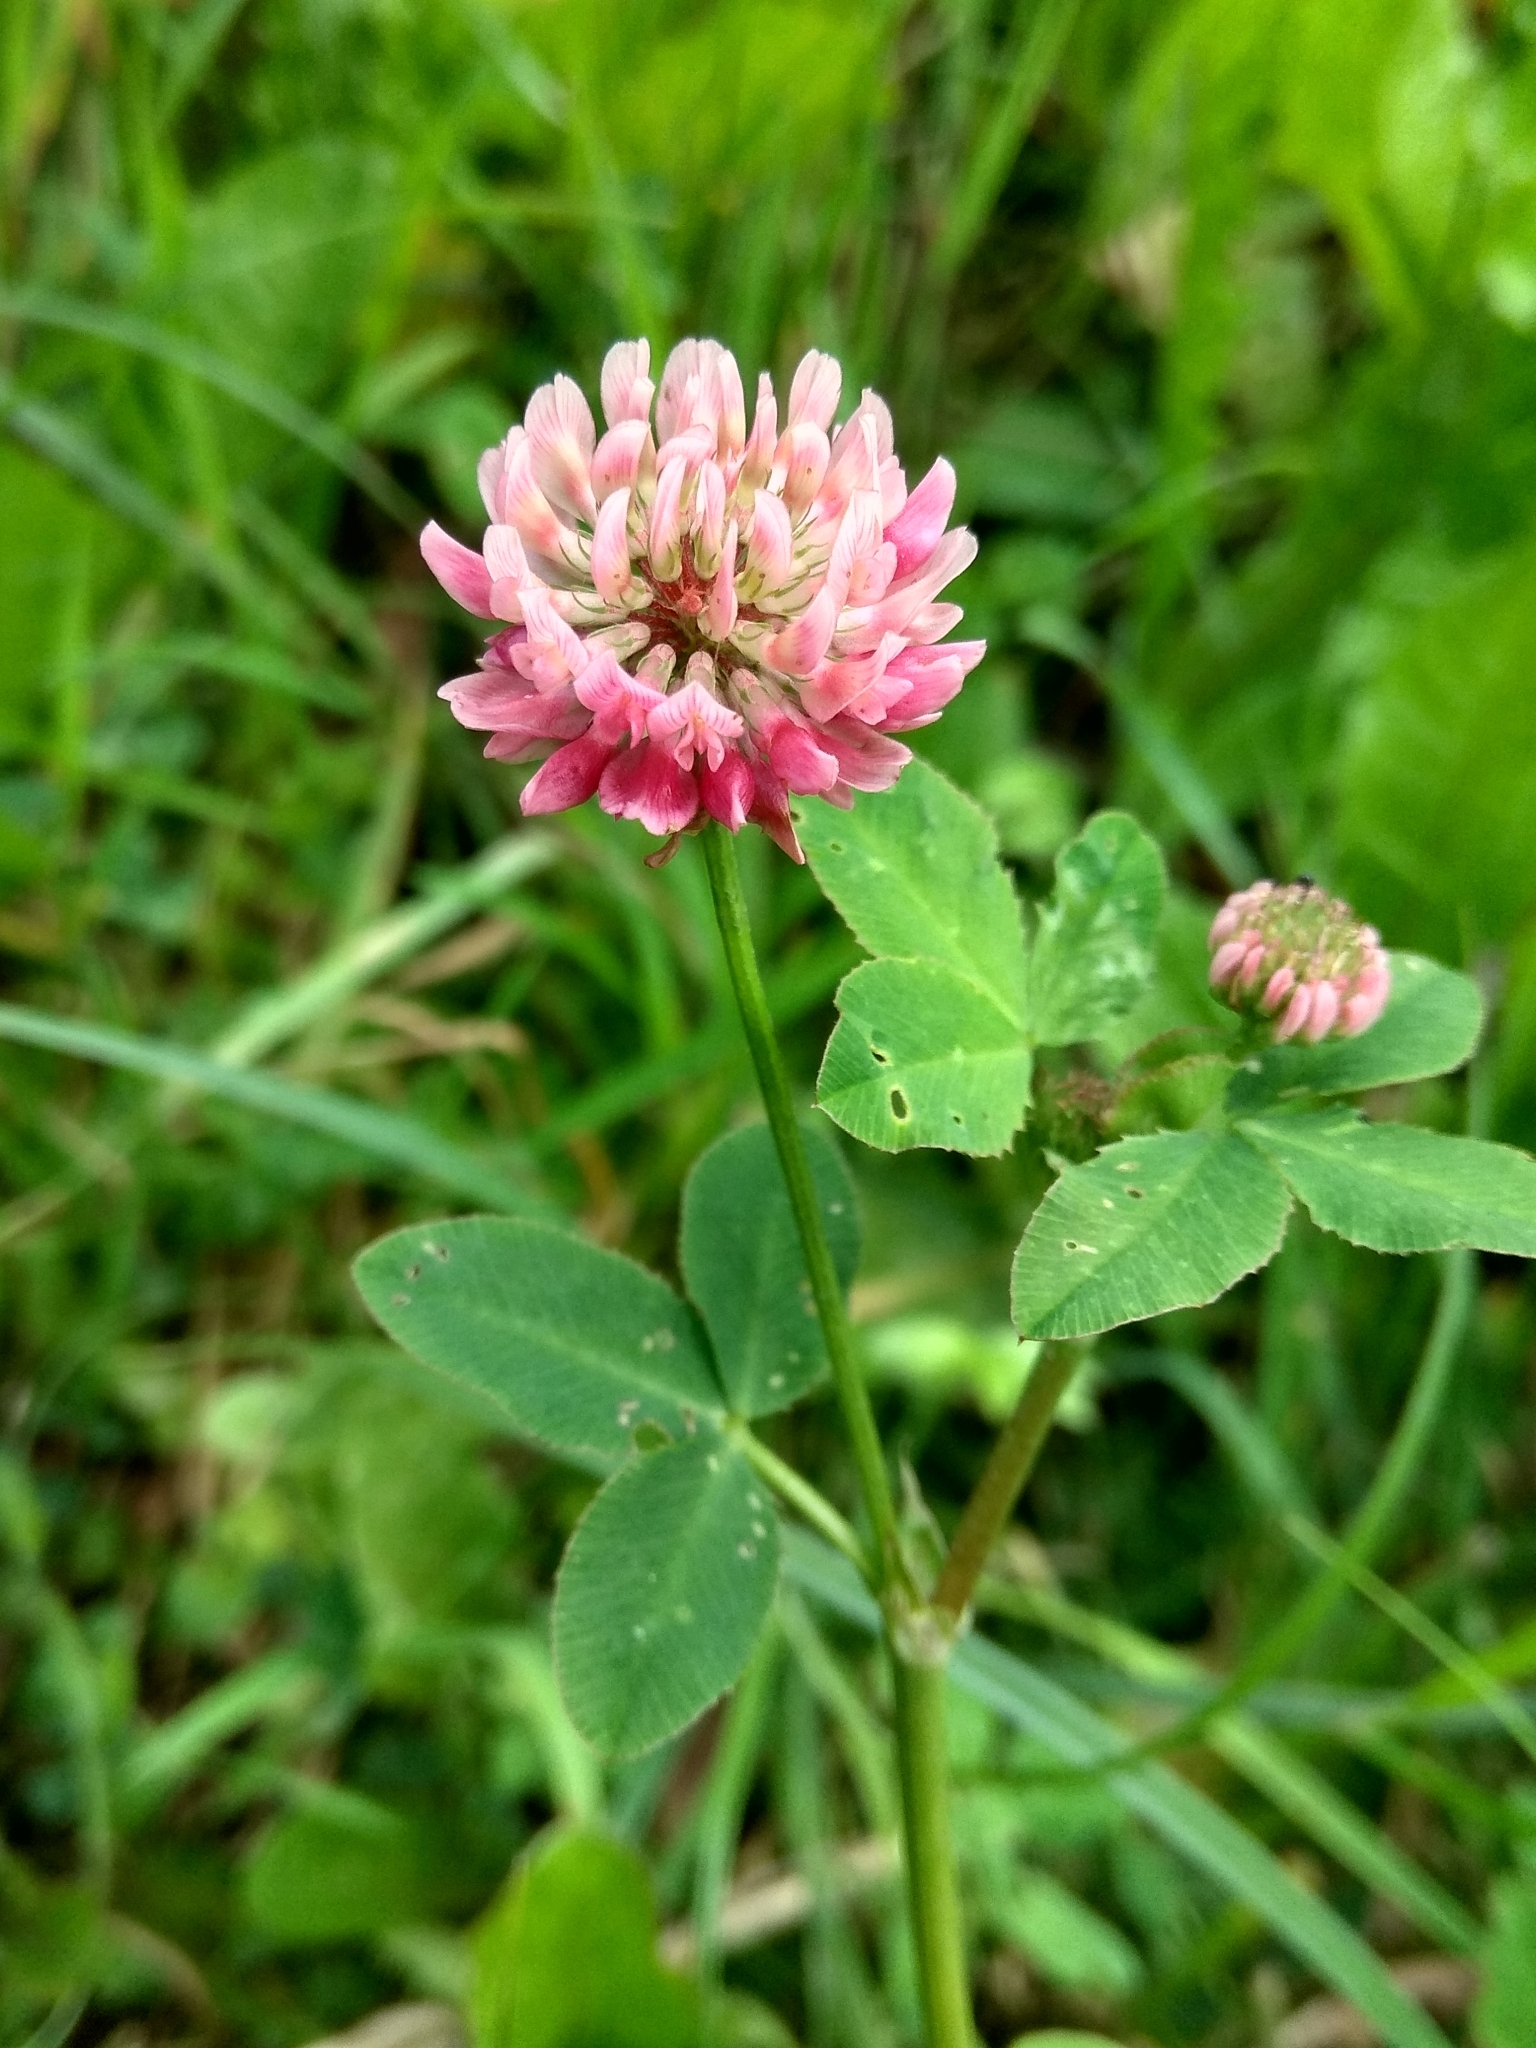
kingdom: Plantae
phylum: Tracheophyta
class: Magnoliopsida
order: Fabales
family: Fabaceae
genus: Trifolium
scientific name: Trifolium hybridum
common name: Alsike clover
